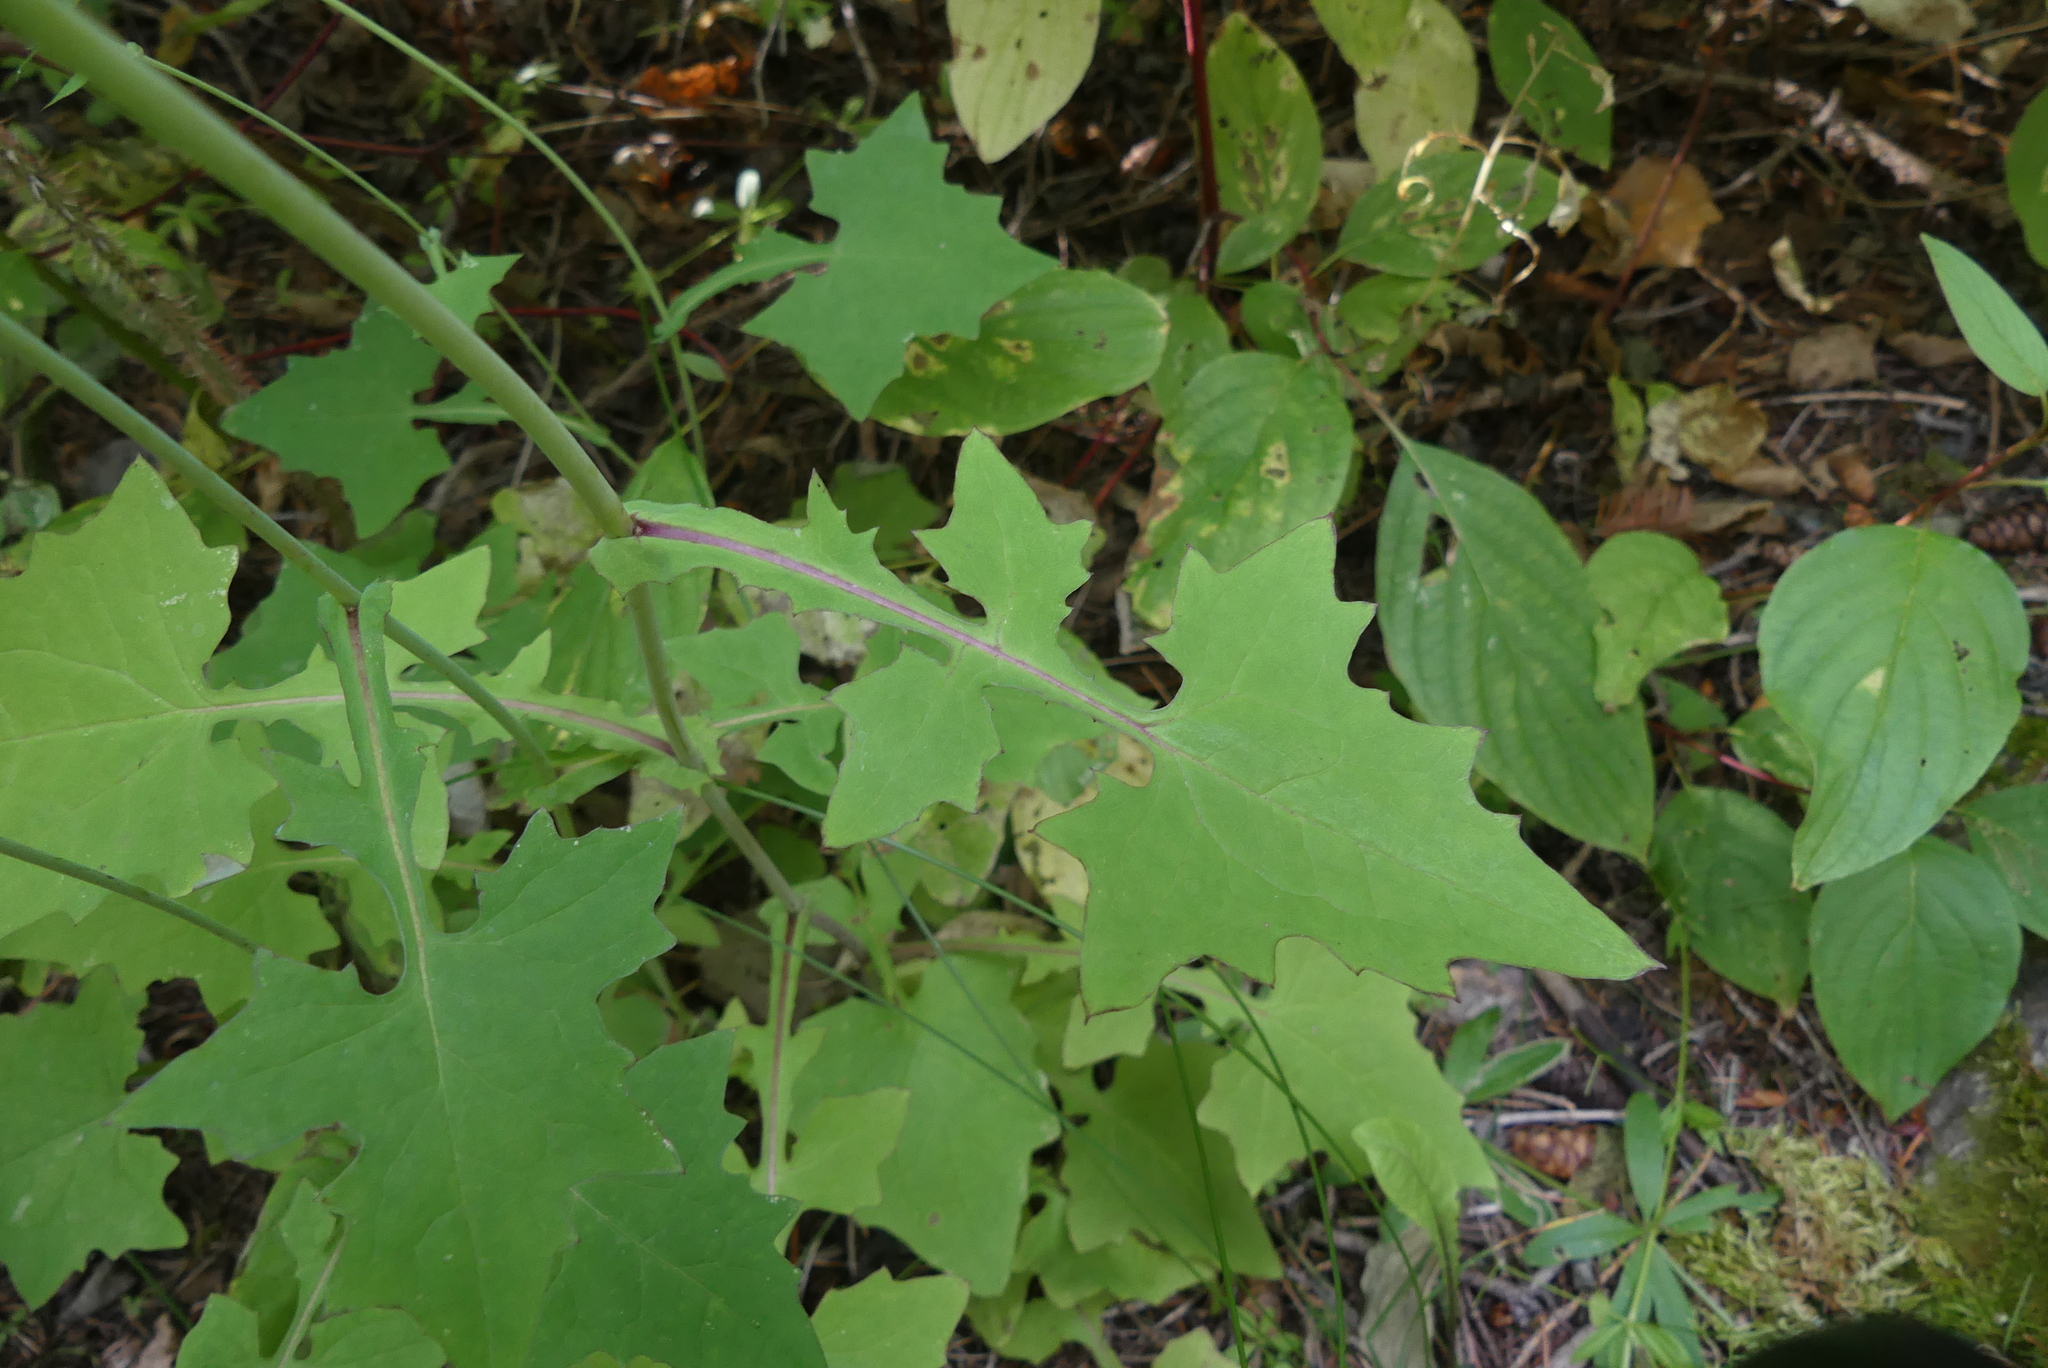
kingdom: Plantae
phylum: Tracheophyta
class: Magnoliopsida
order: Asterales
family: Asteraceae
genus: Mycelis
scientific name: Mycelis muralis
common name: Wall lettuce
